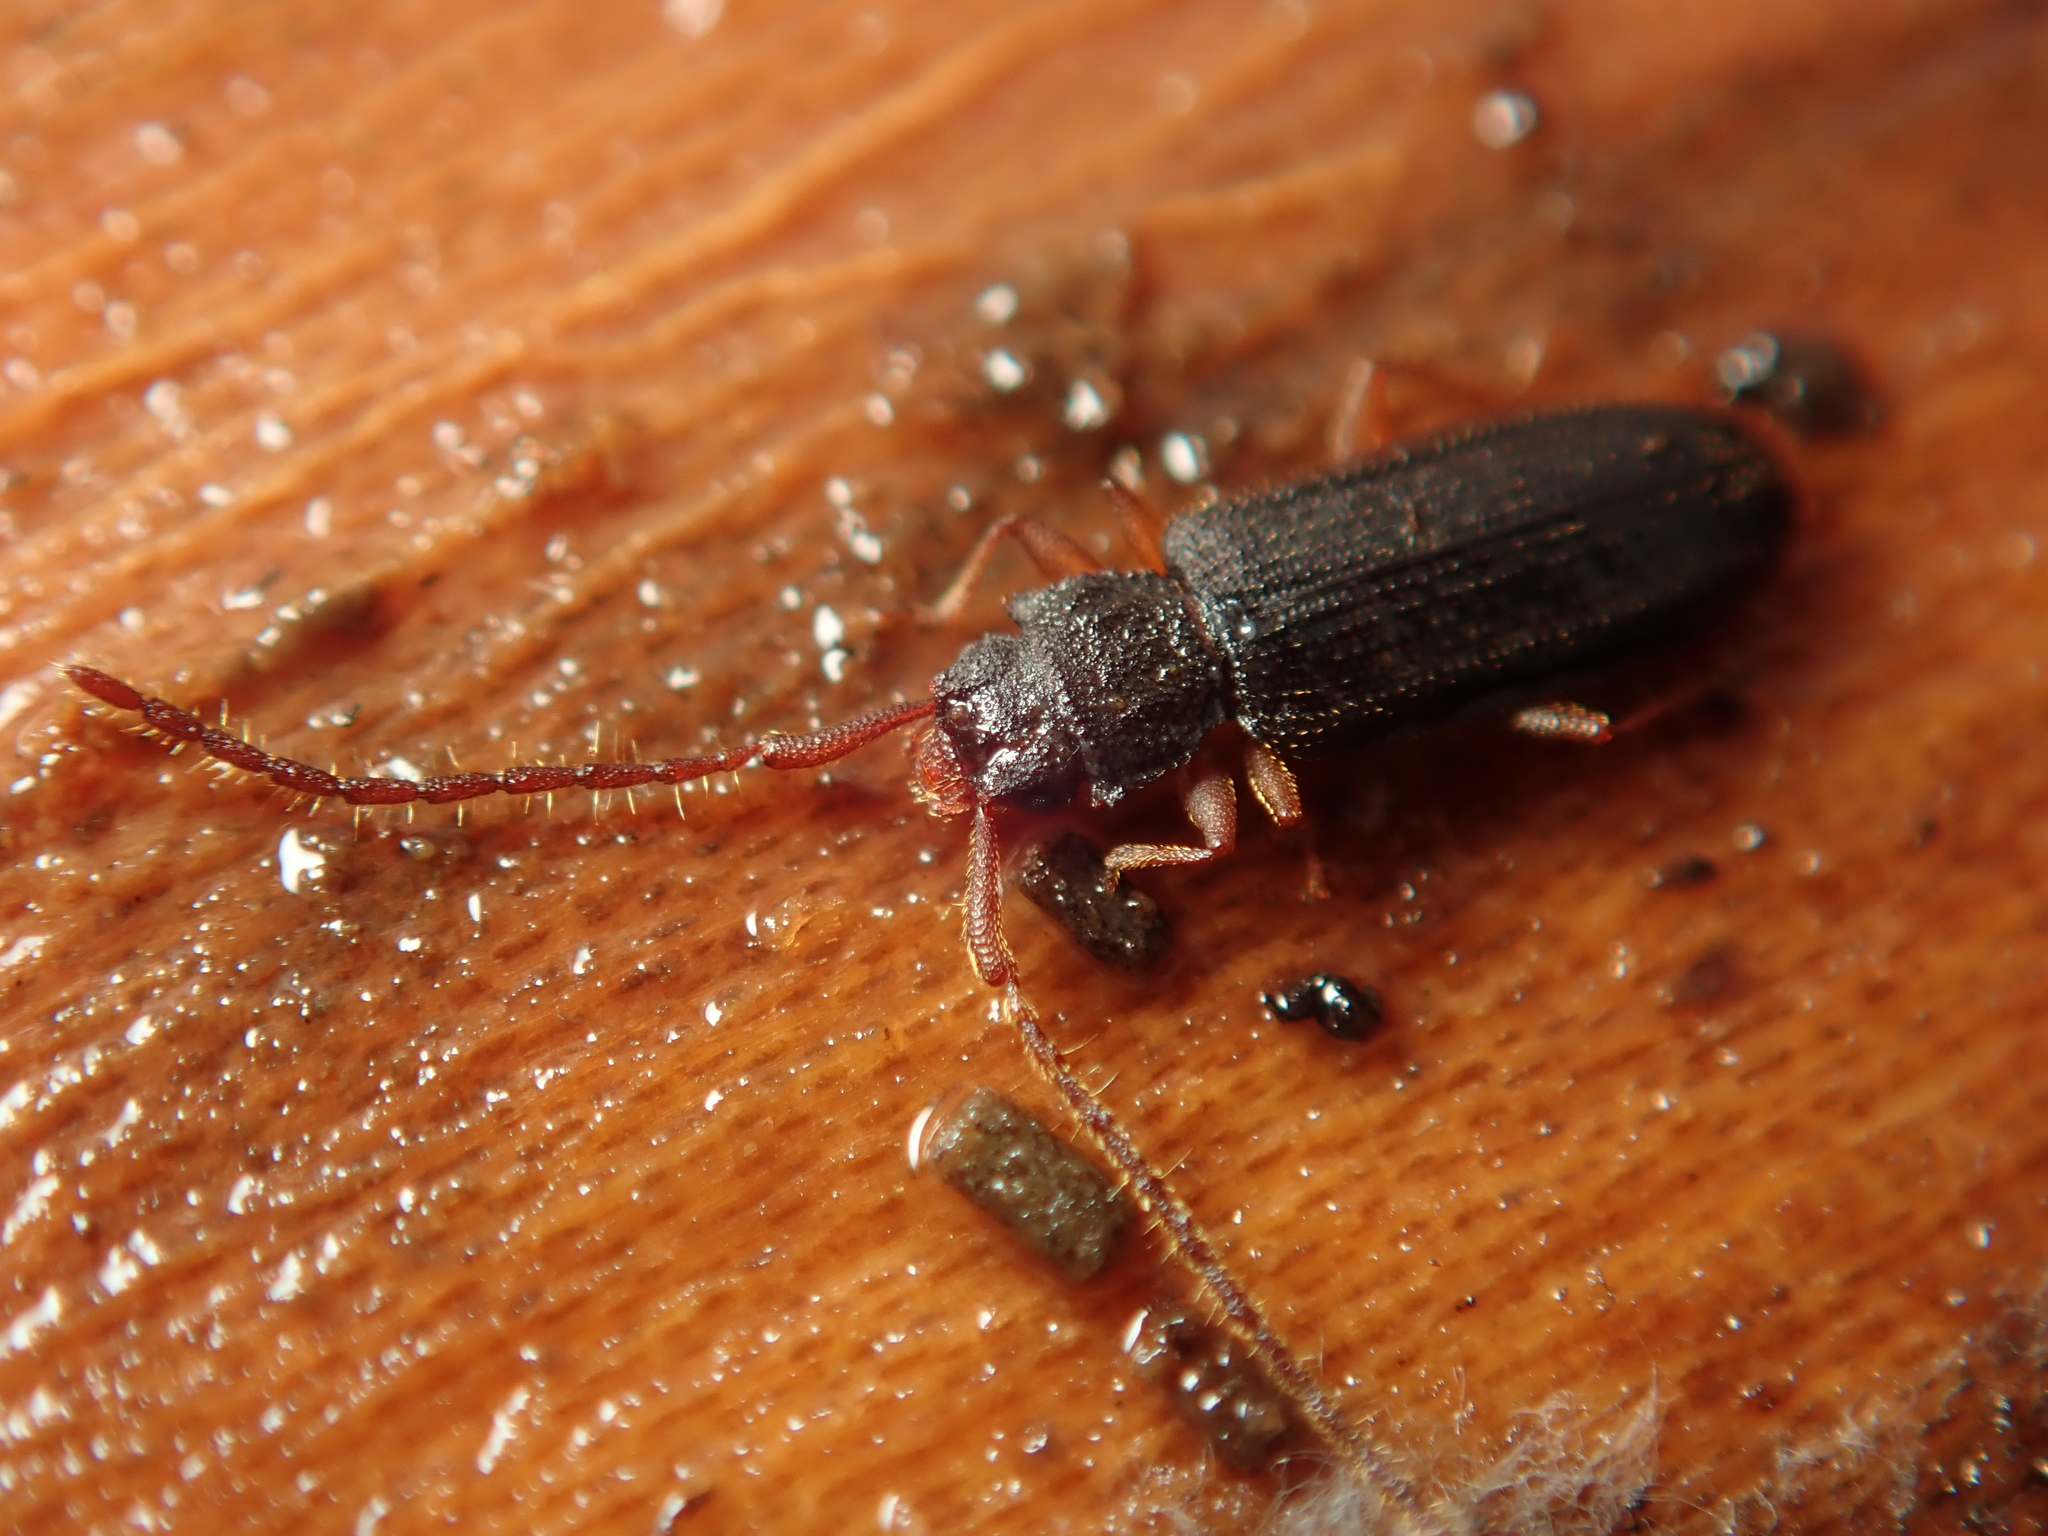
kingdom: Animalia
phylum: Arthropoda
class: Insecta
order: Coleoptera
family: Silvanidae
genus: Uleiota
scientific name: Uleiota planatus
